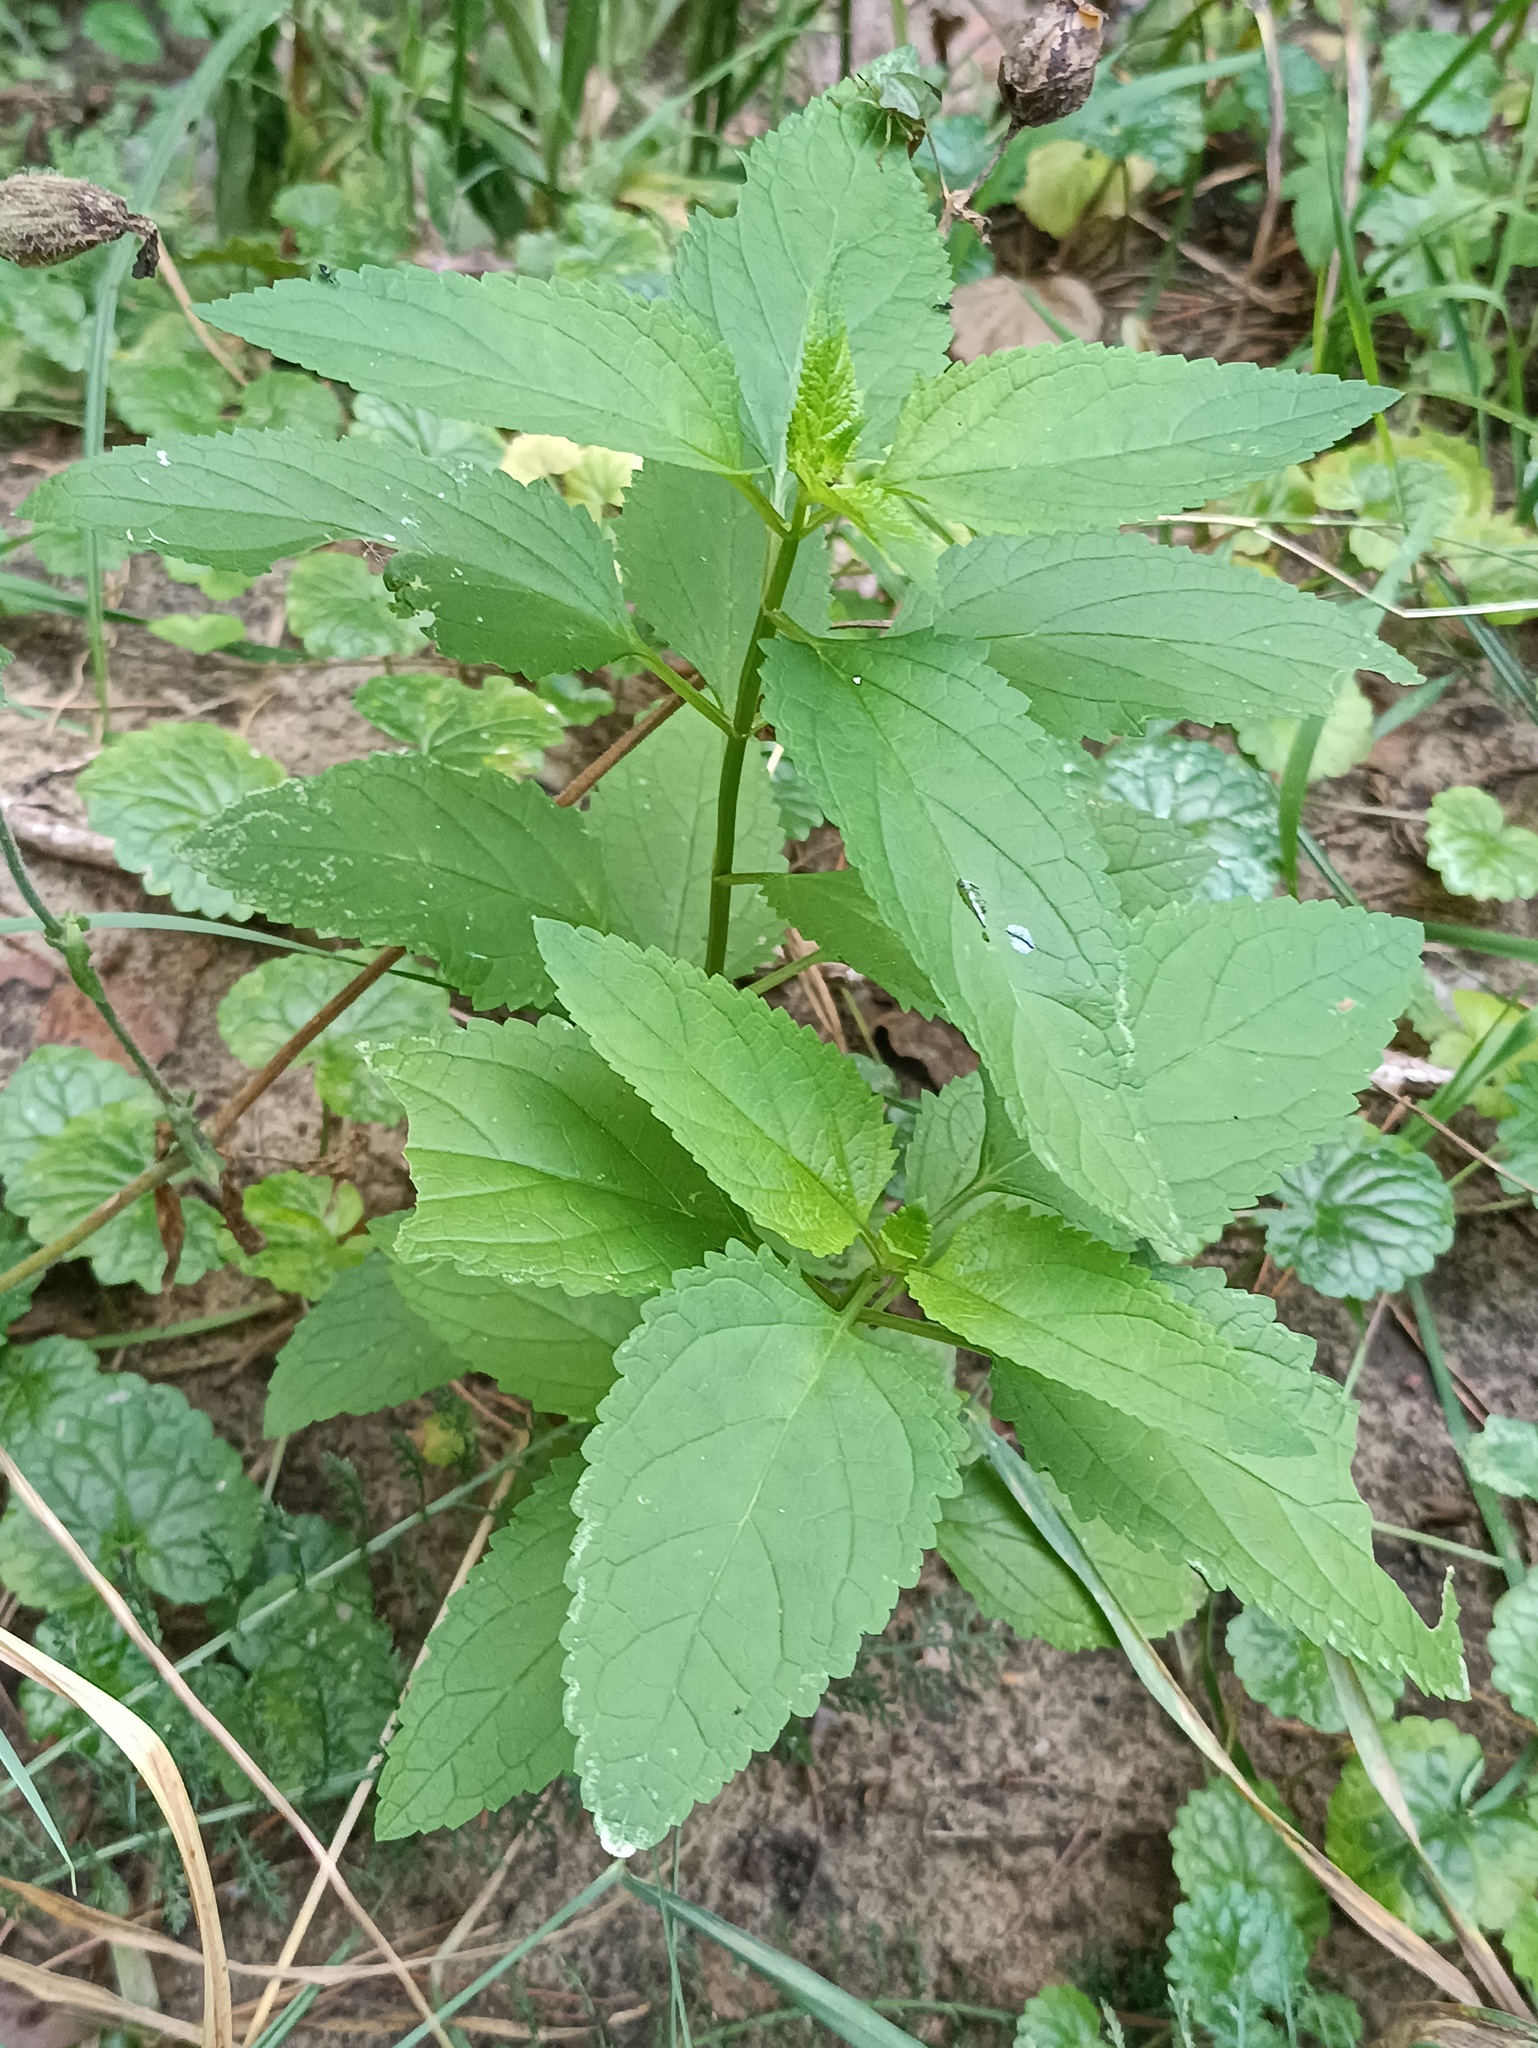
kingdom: Plantae
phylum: Tracheophyta
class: Magnoliopsida
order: Lamiales
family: Scrophulariaceae
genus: Scrophularia
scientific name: Scrophularia nodosa
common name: Common figwort
